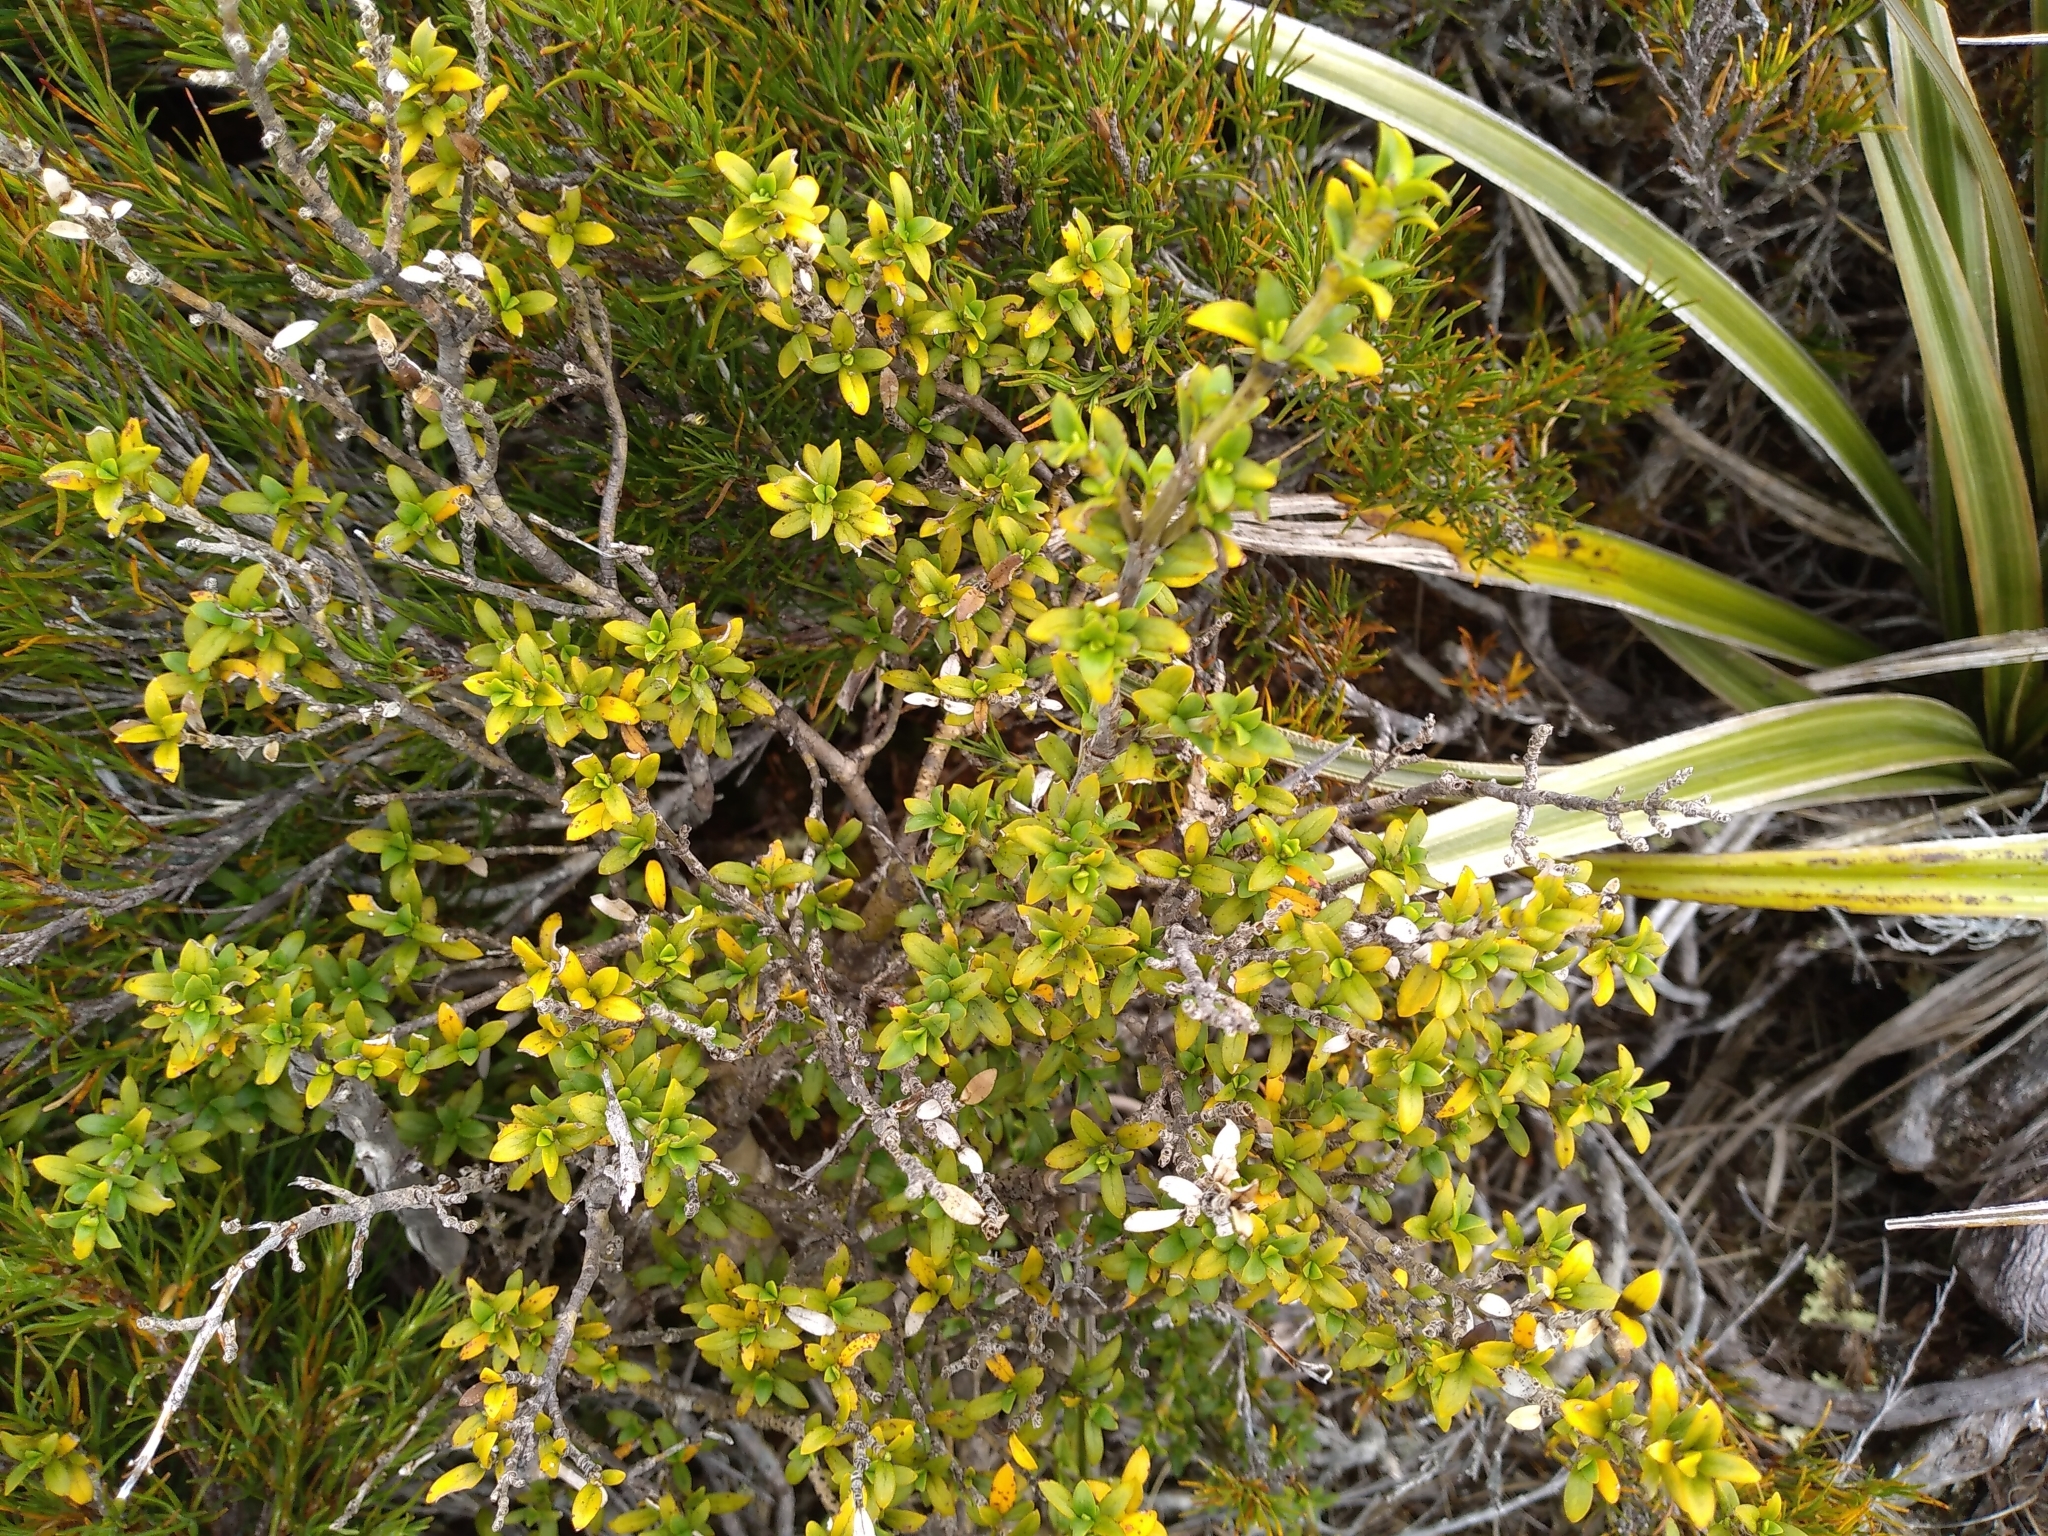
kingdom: Plantae
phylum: Tracheophyta
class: Magnoliopsida
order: Gentianales
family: Rubiaceae
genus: Coprosma
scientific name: Coprosma pseudocuneata
